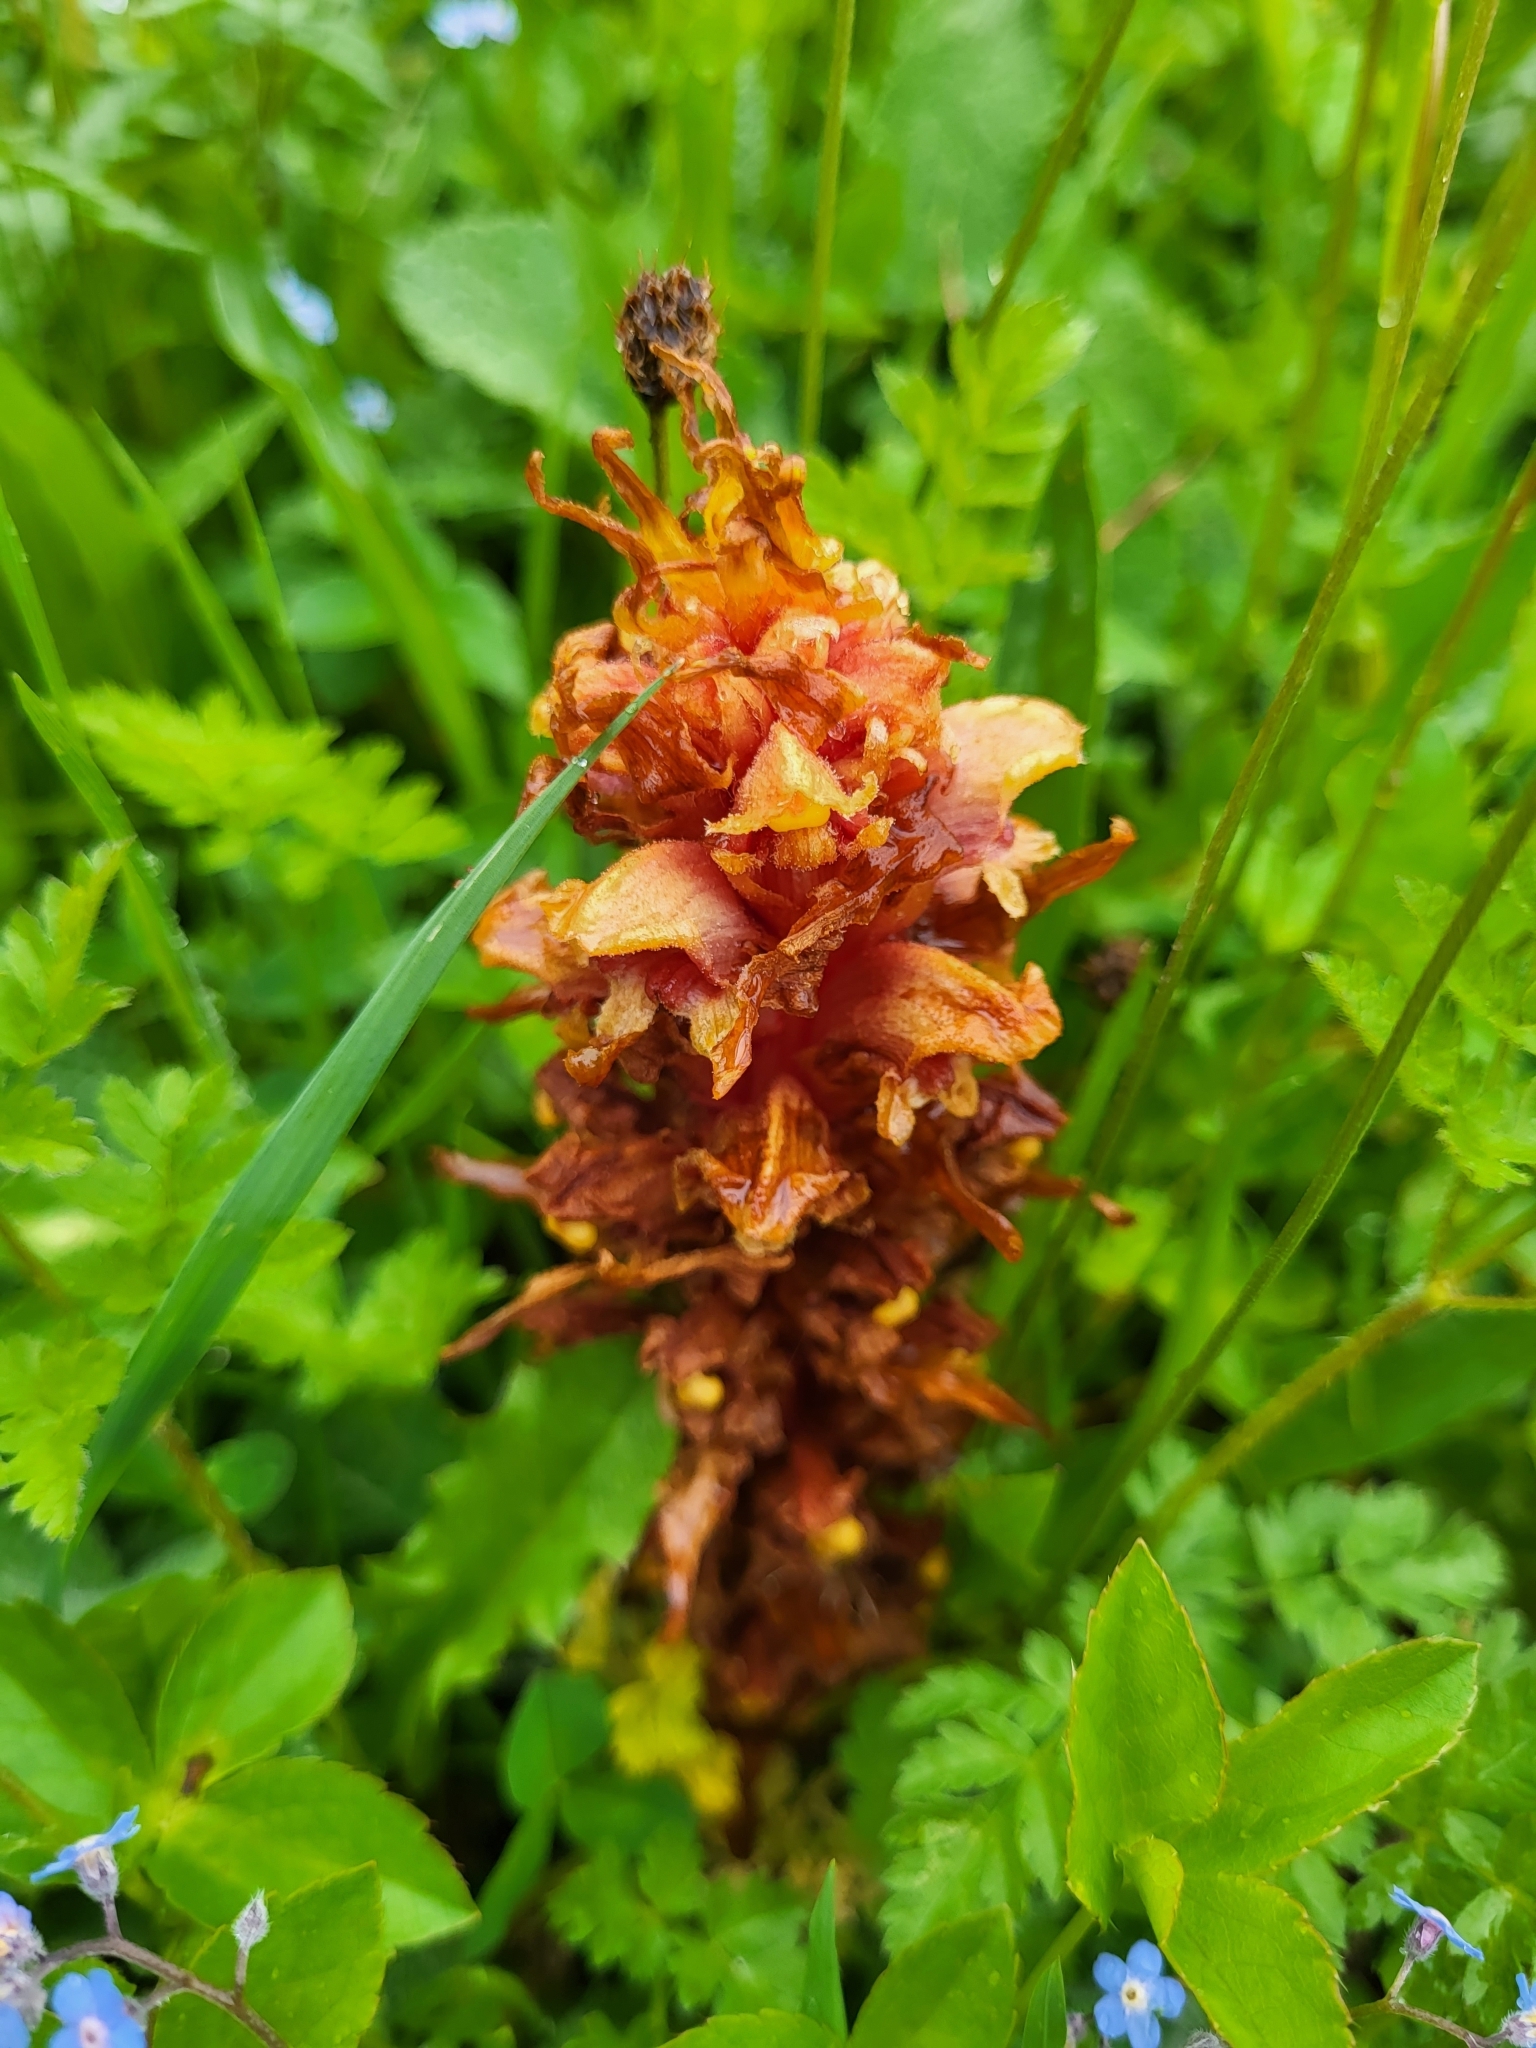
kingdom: Plantae
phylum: Tracheophyta
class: Magnoliopsida
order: Lamiales
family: Orobanchaceae
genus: Orobanche
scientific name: Orobanche colorata
